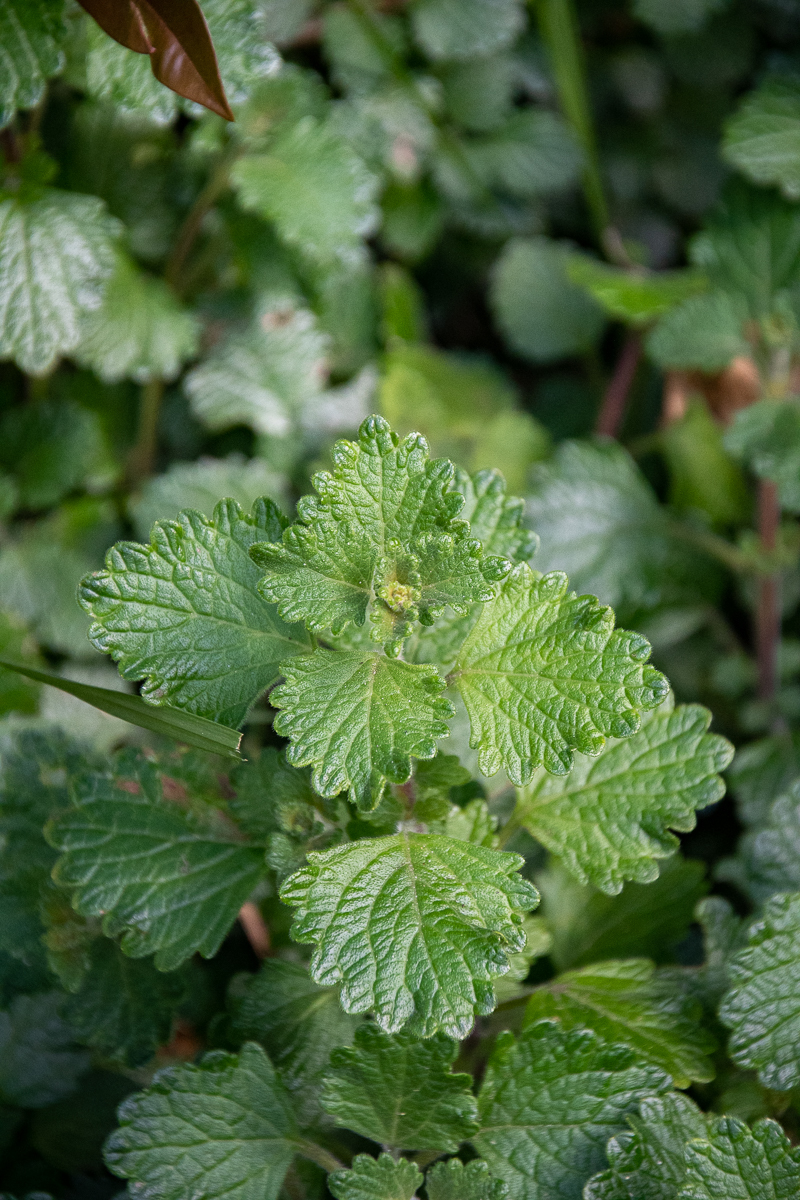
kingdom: Plantae
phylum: Tracheophyta
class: Magnoliopsida
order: Lamiales
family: Lamiaceae
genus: Coleus
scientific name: Coleus madagascariensis
